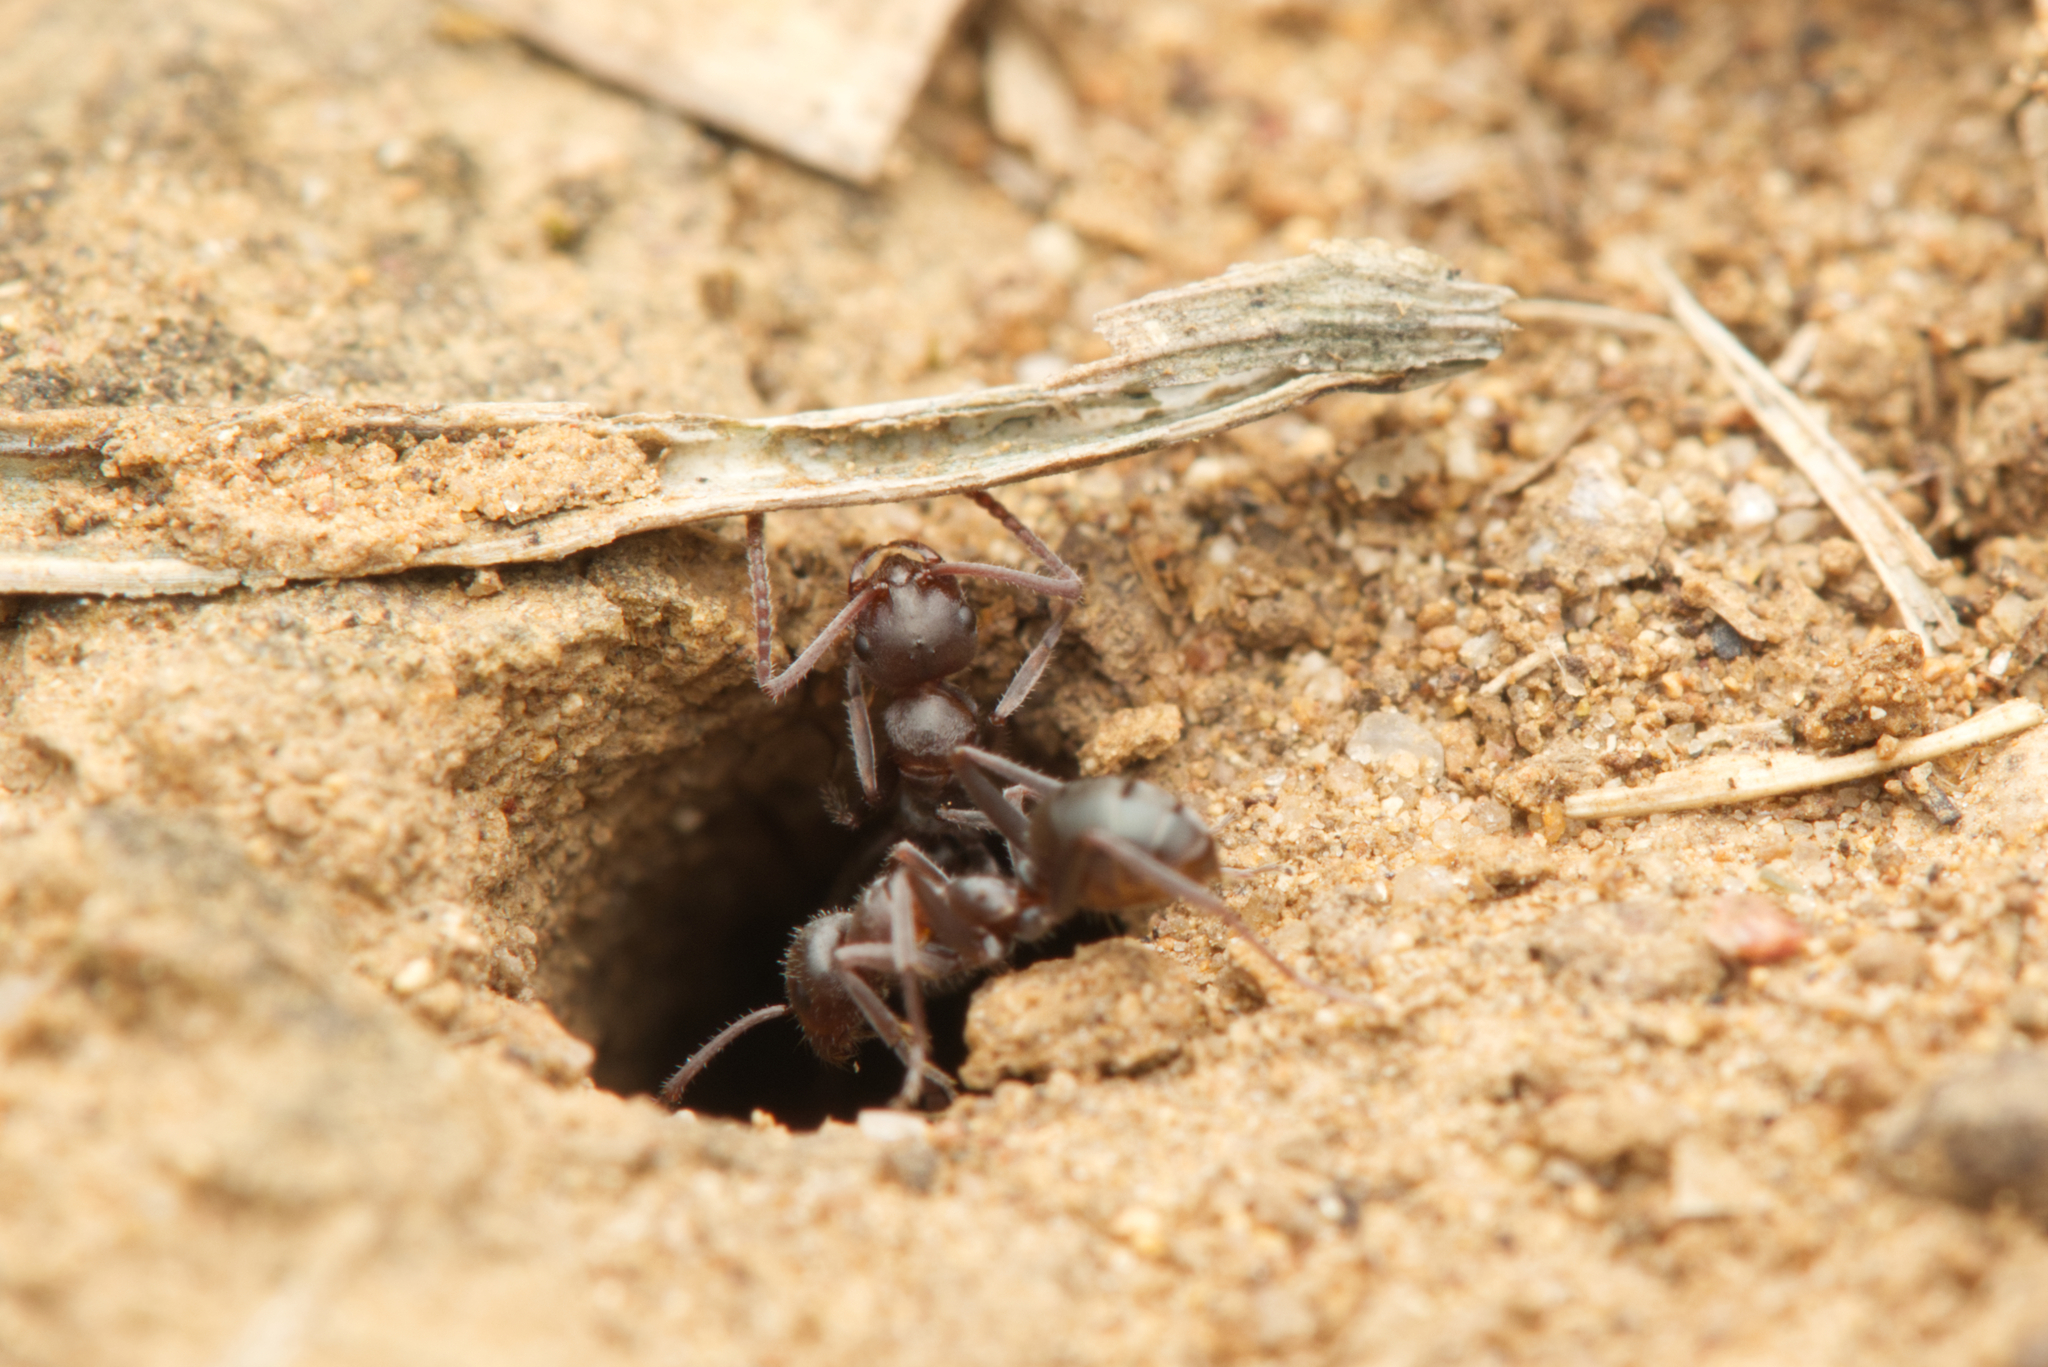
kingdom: Animalia
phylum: Arthropoda
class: Insecta
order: Hymenoptera
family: Formicidae
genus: Melophorus
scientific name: Melophorus gibbosus
